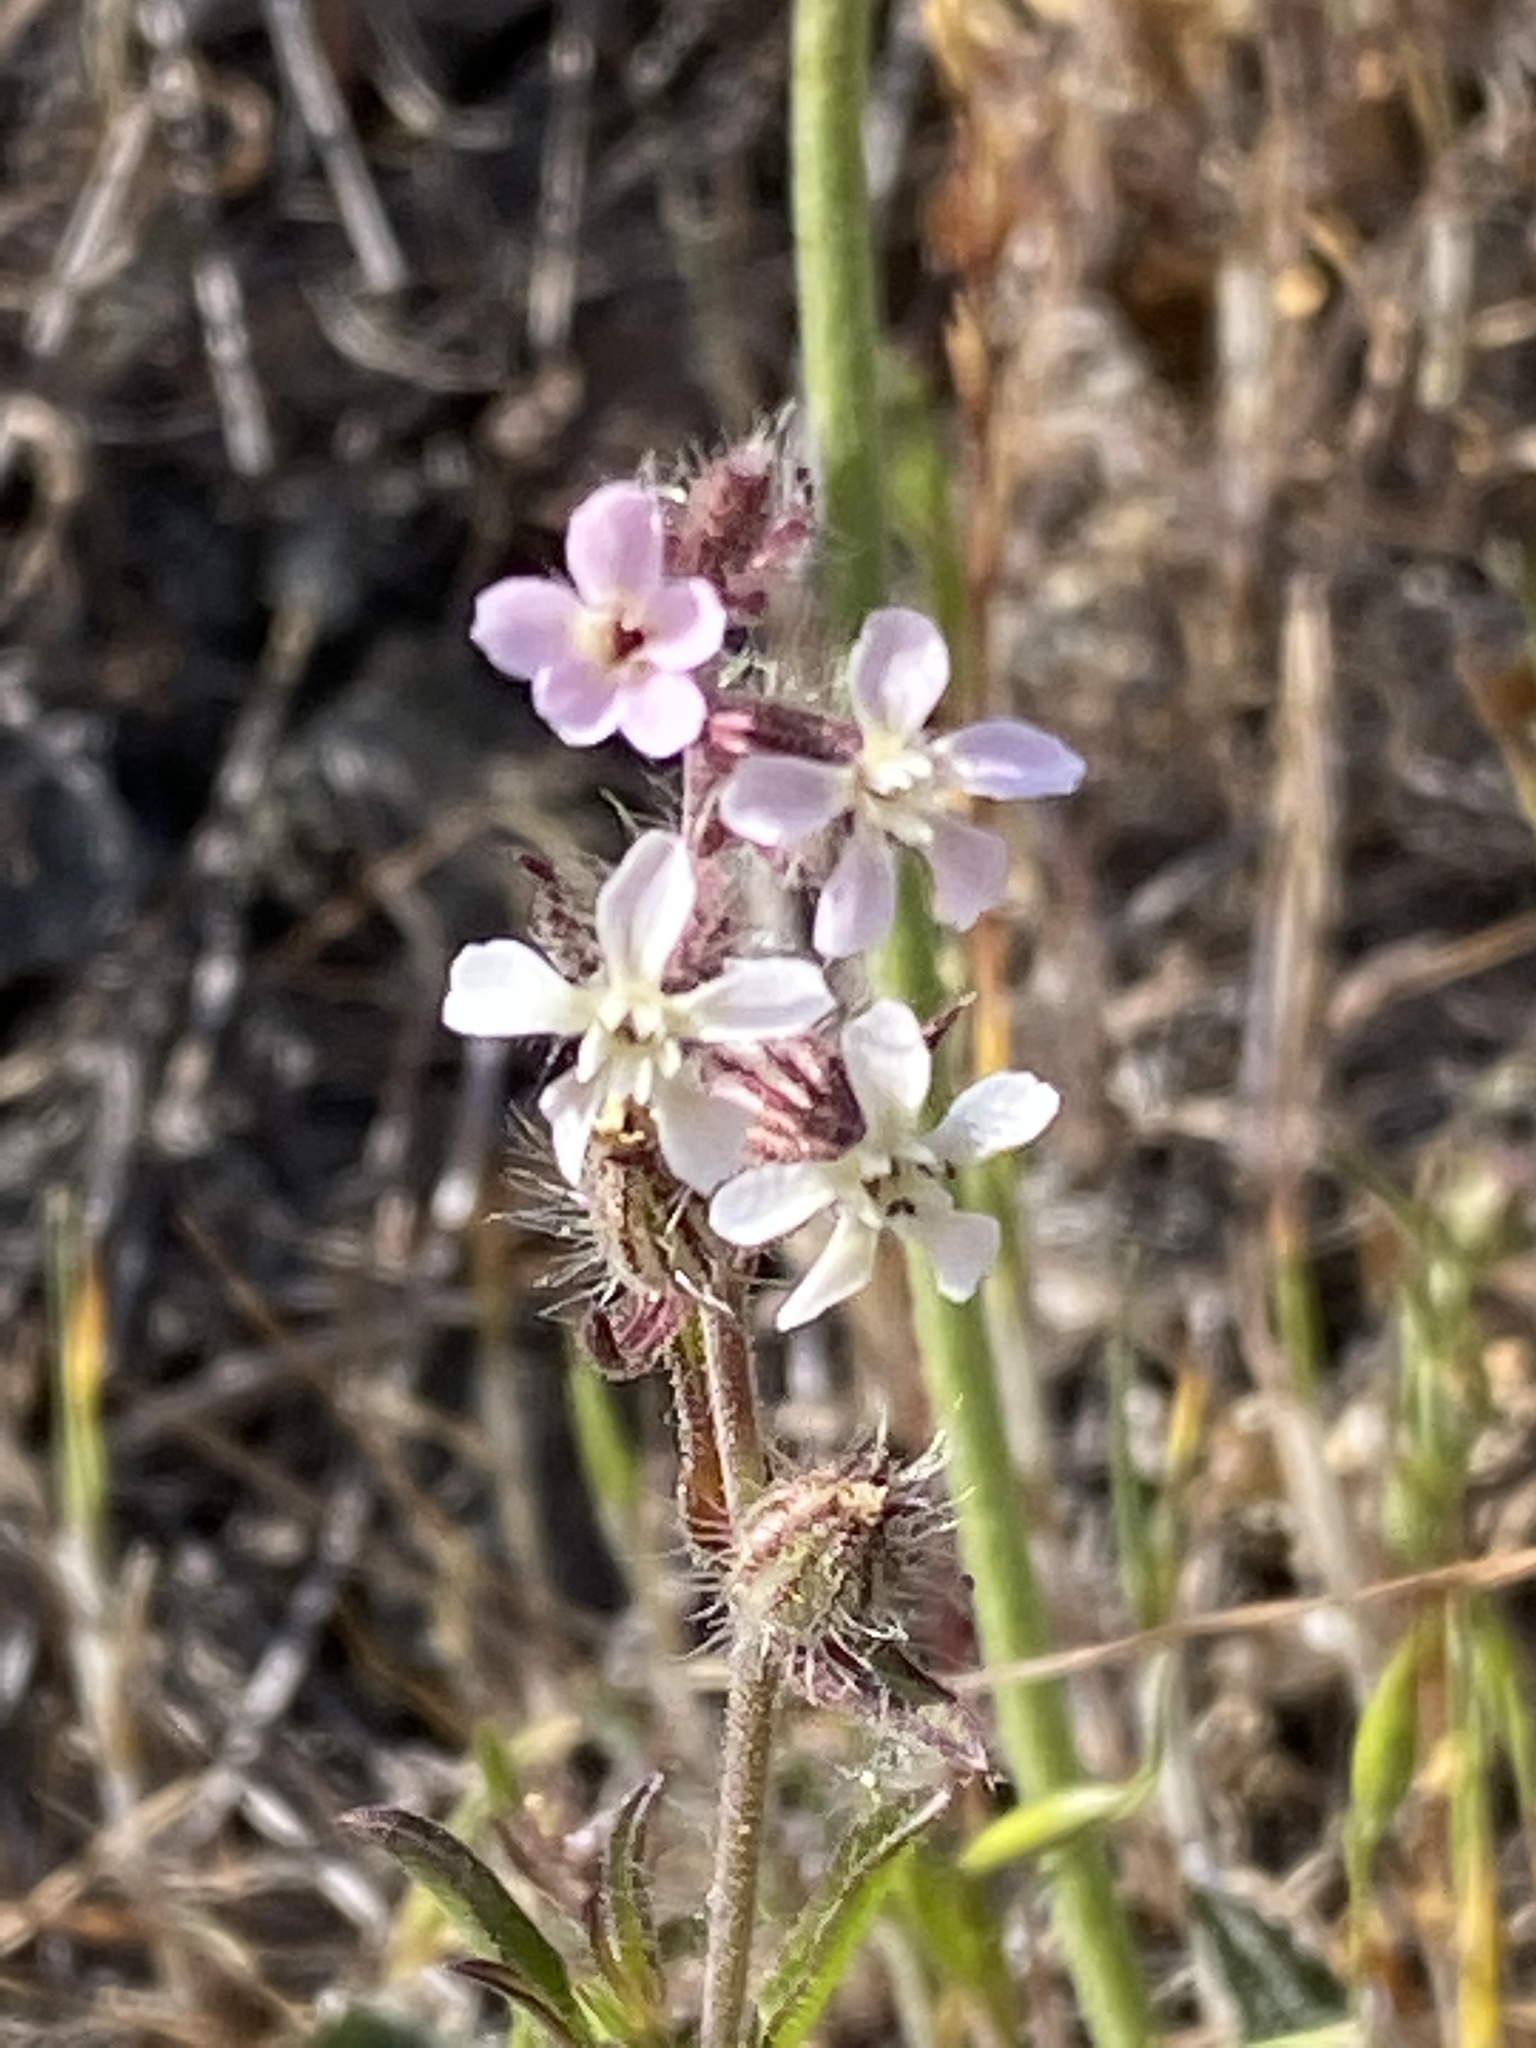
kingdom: Plantae
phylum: Tracheophyta
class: Magnoliopsida
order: Caryophyllales
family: Caryophyllaceae
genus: Silene
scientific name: Silene gallica
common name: Small-flowered catchfly
